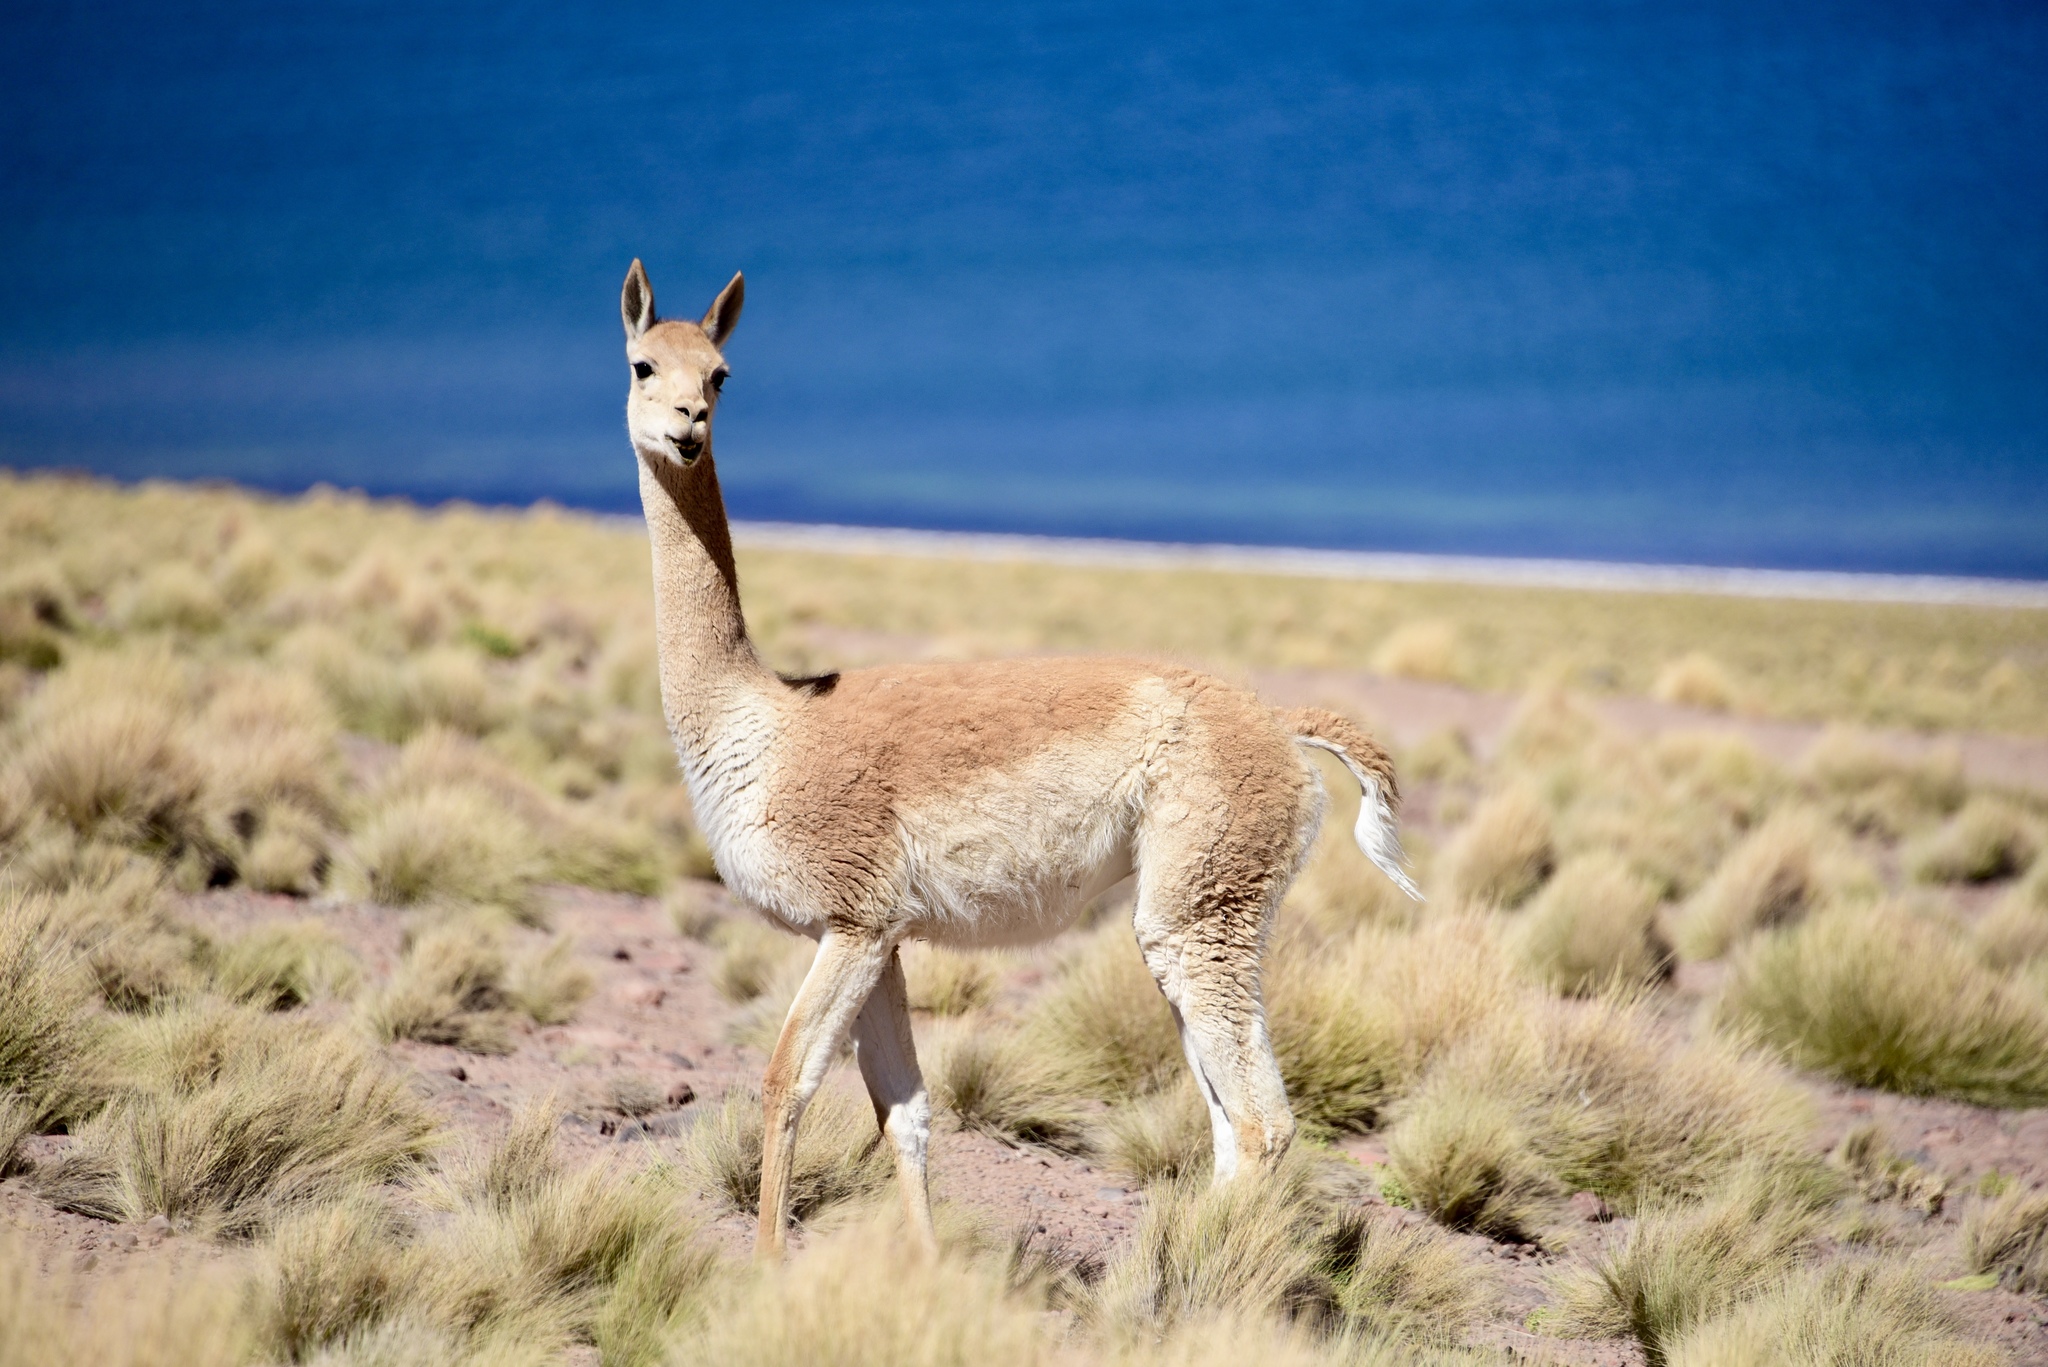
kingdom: Animalia
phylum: Chordata
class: Mammalia
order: Artiodactyla
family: Camelidae
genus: Vicugna
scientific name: Vicugna vicugna
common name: Vicugna
